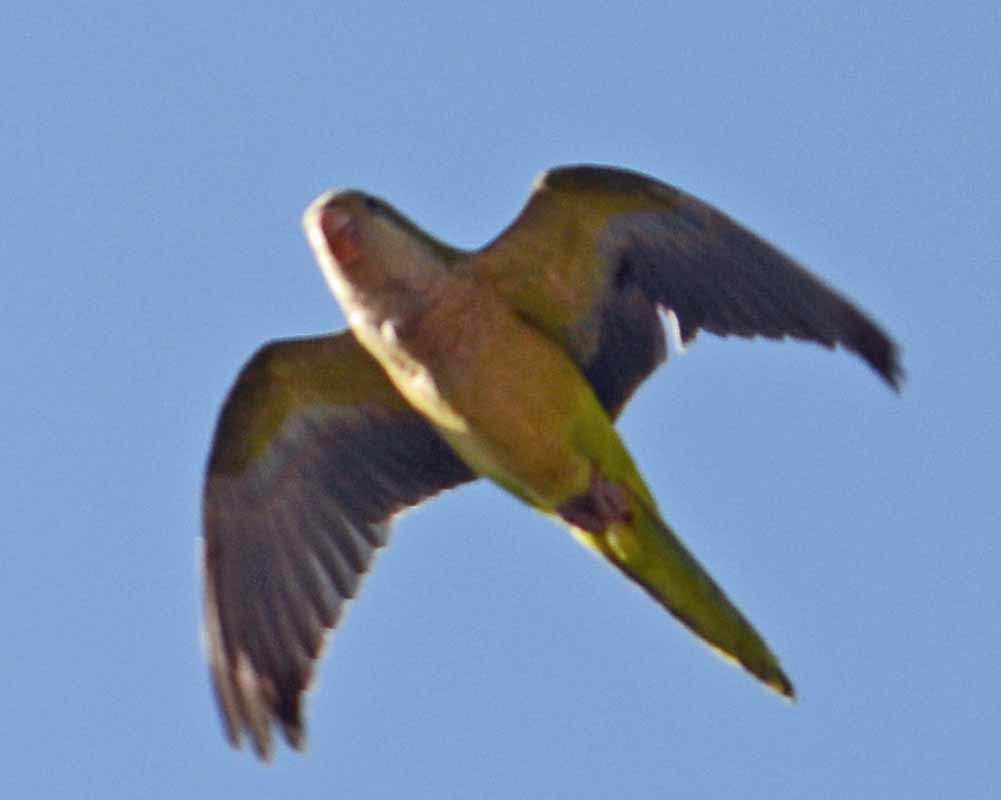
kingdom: Animalia
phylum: Chordata
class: Aves
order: Psittaciformes
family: Psittacidae
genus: Myiopsitta
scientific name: Myiopsitta monachus
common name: Monk parakeet
